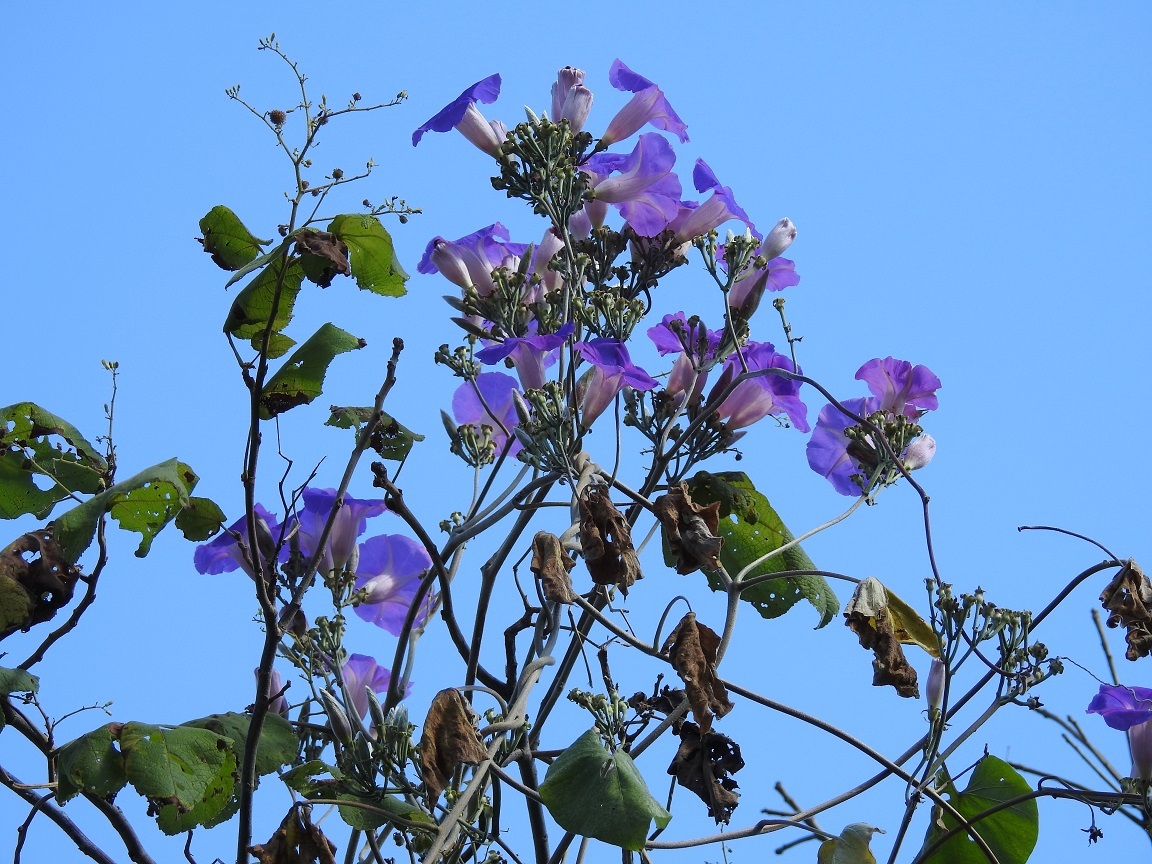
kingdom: Plantae
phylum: Tracheophyta
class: Magnoliopsida
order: Solanales
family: Convolvulaceae
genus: Ipomoea
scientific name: Ipomoea leucotricha
